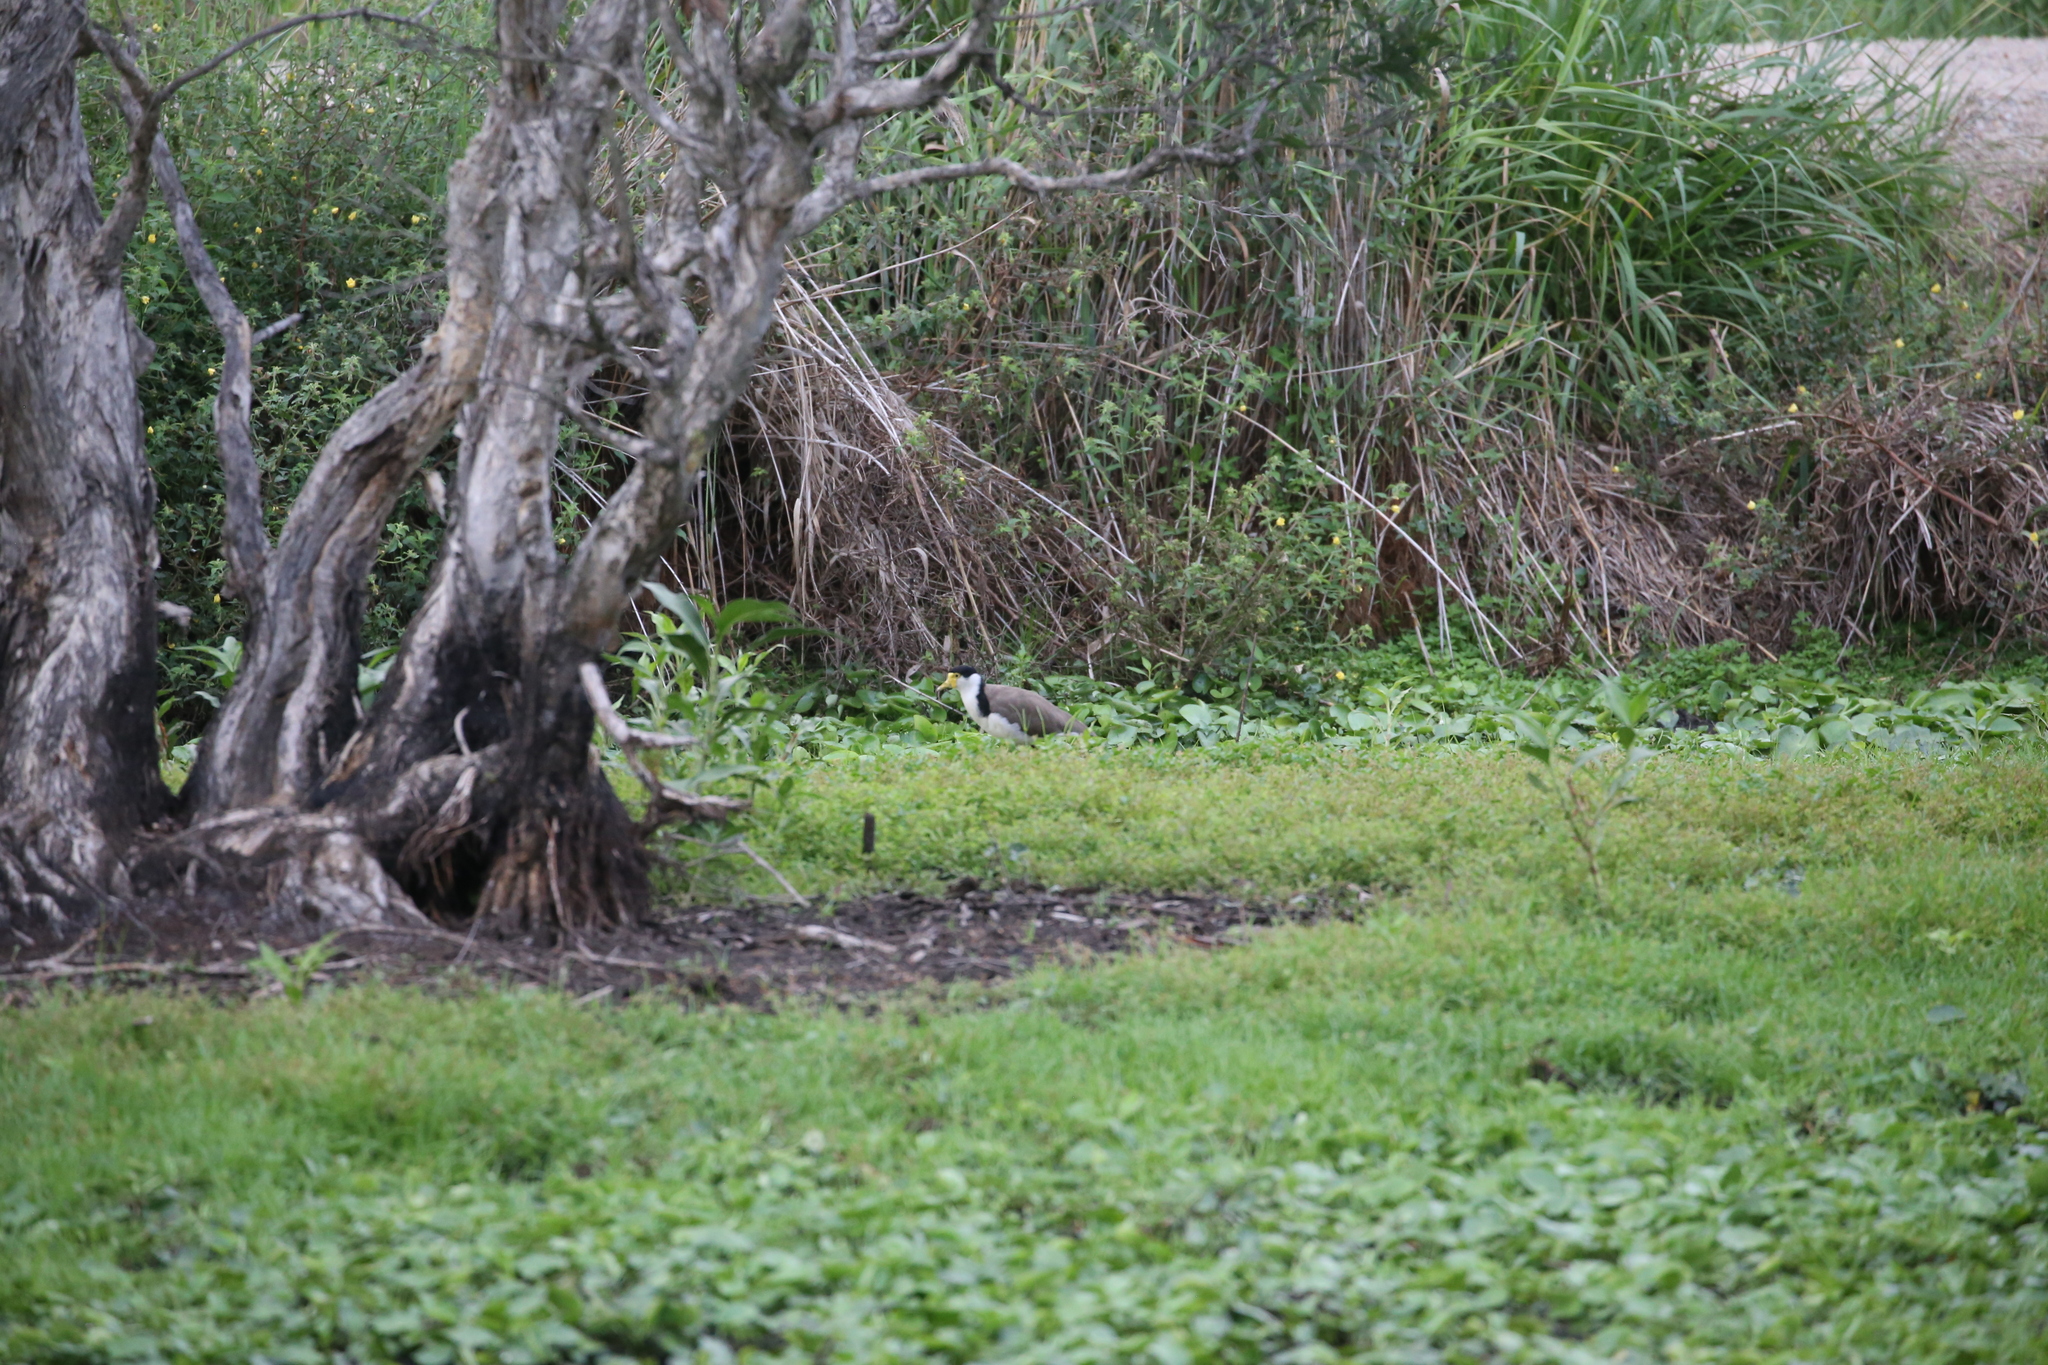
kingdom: Animalia
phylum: Chordata
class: Aves
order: Charadriiformes
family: Charadriidae
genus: Vanellus
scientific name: Vanellus miles
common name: Masked lapwing
